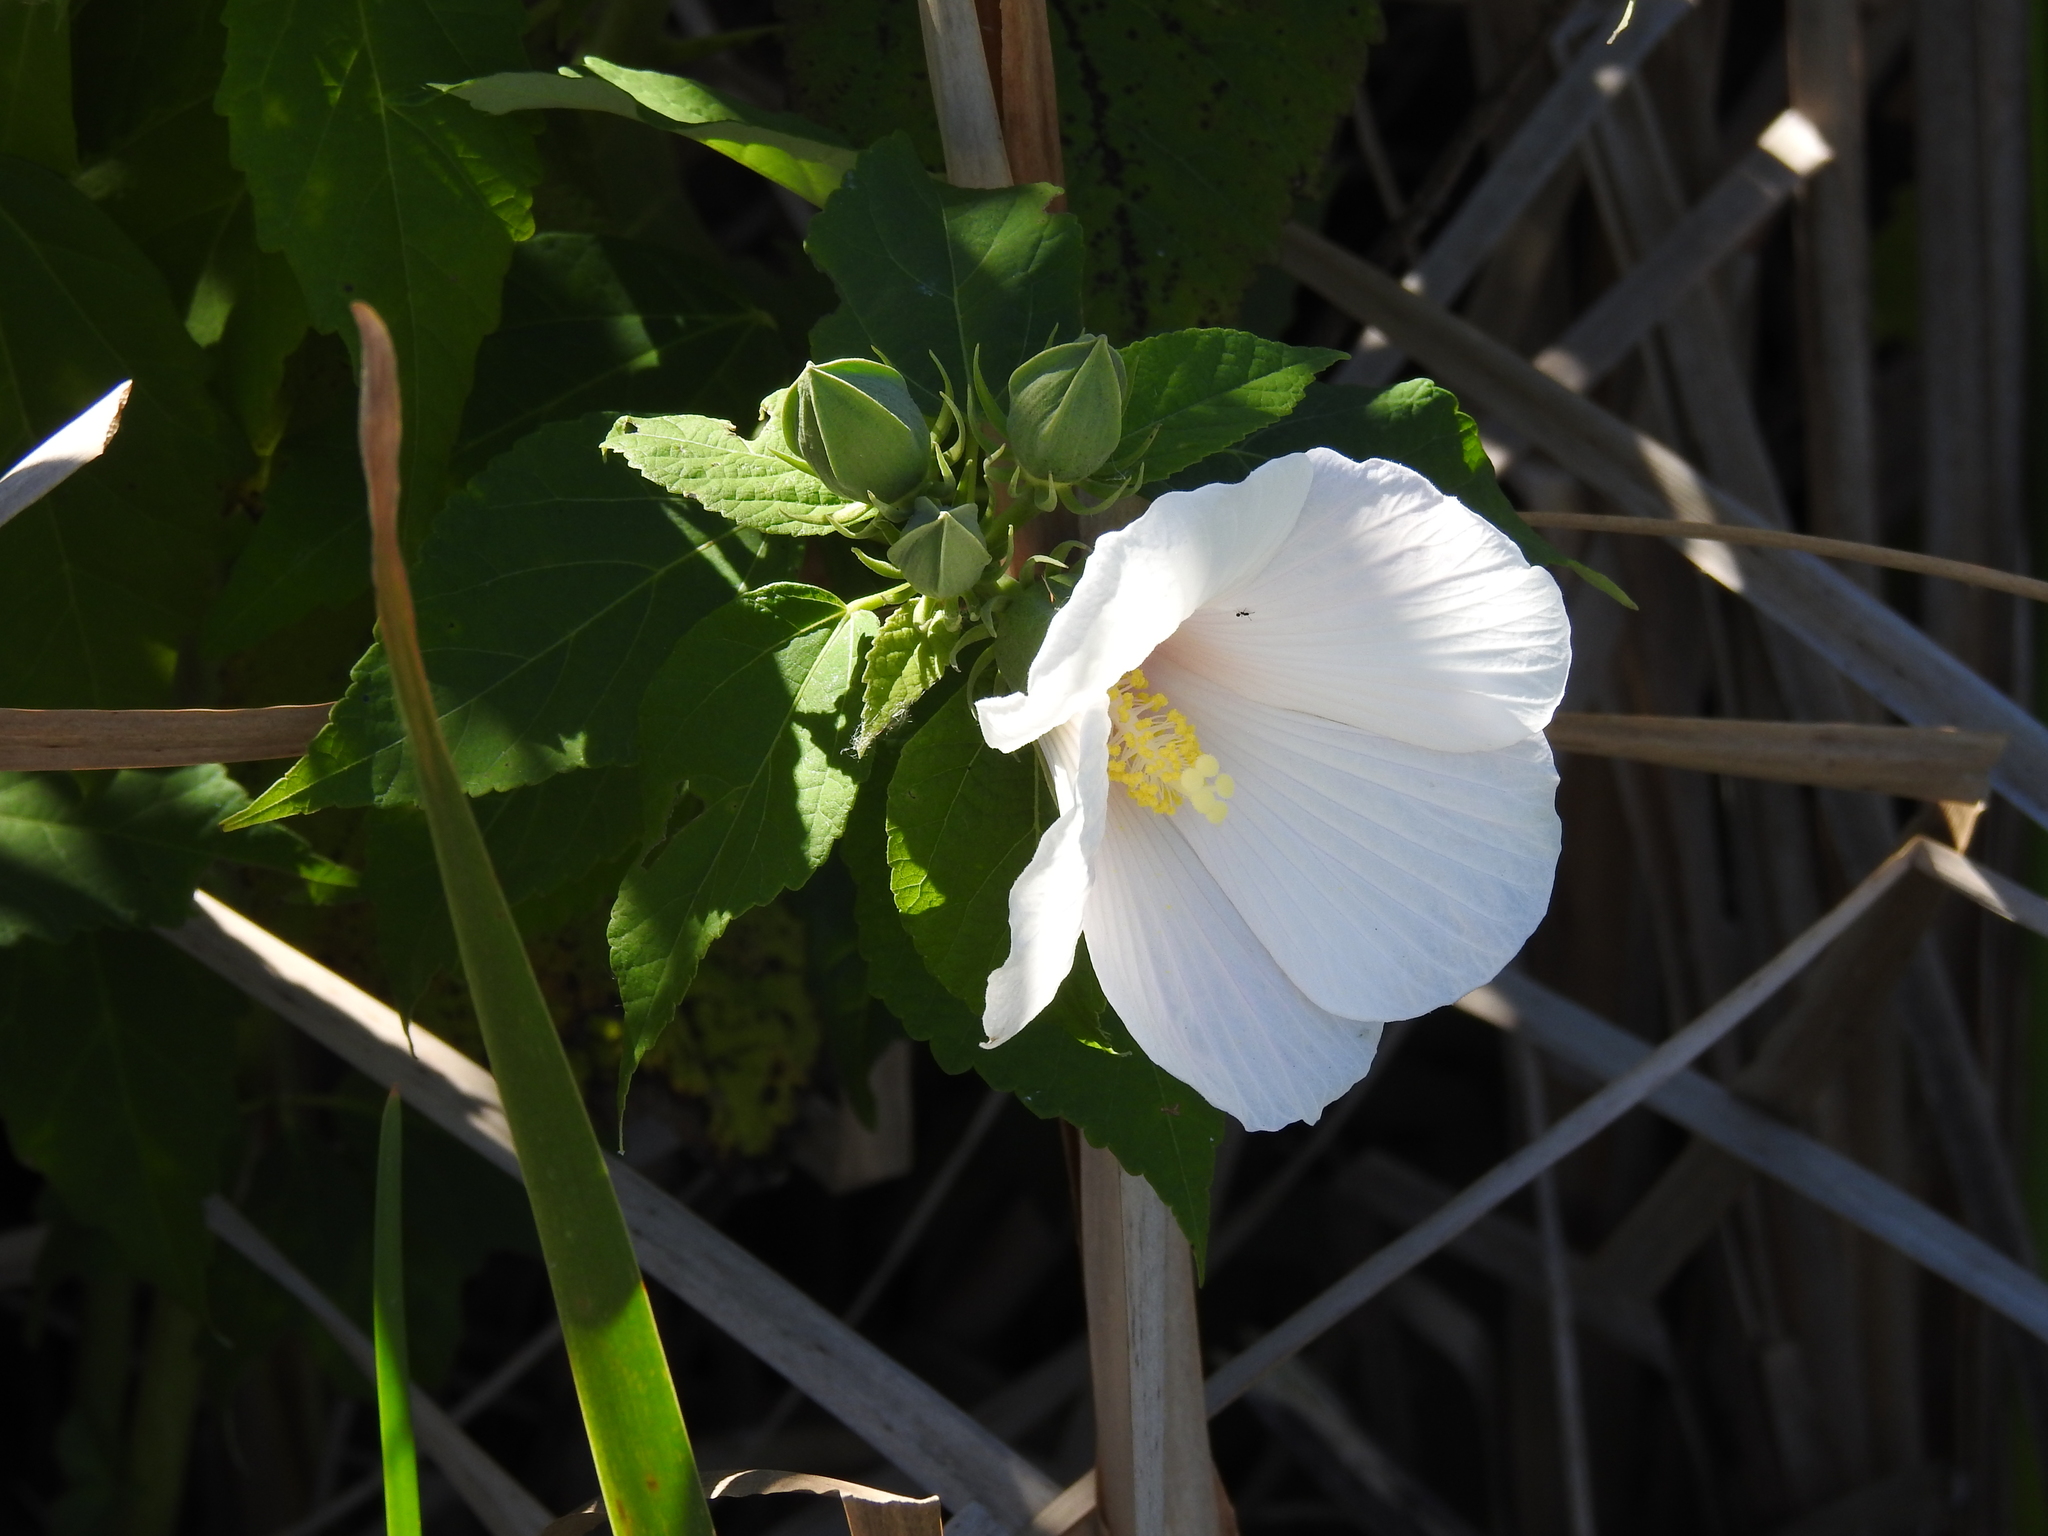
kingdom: Plantae
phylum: Tracheophyta
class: Magnoliopsida
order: Malvales
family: Malvaceae
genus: Hibiscus
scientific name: Hibiscus moscheutos
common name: Common rose-mallow
